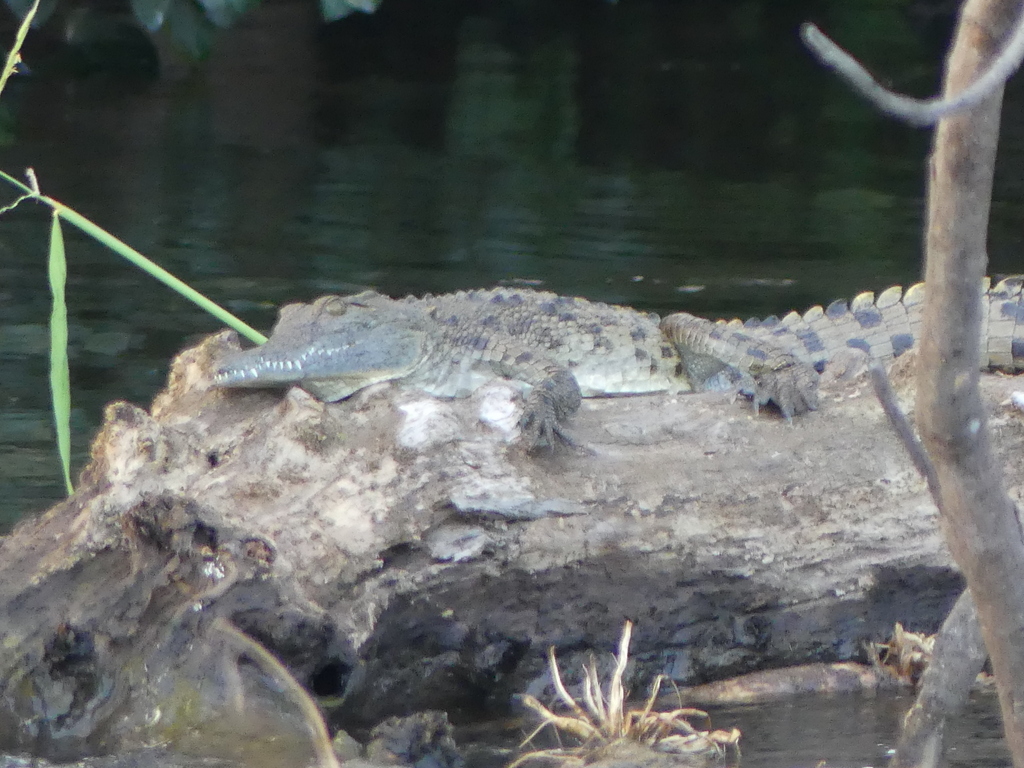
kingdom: Animalia
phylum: Chordata
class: Crocodylia
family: Crocodylidae
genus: Crocodylus
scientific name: Crocodylus niloticus
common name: Nile crocodile
